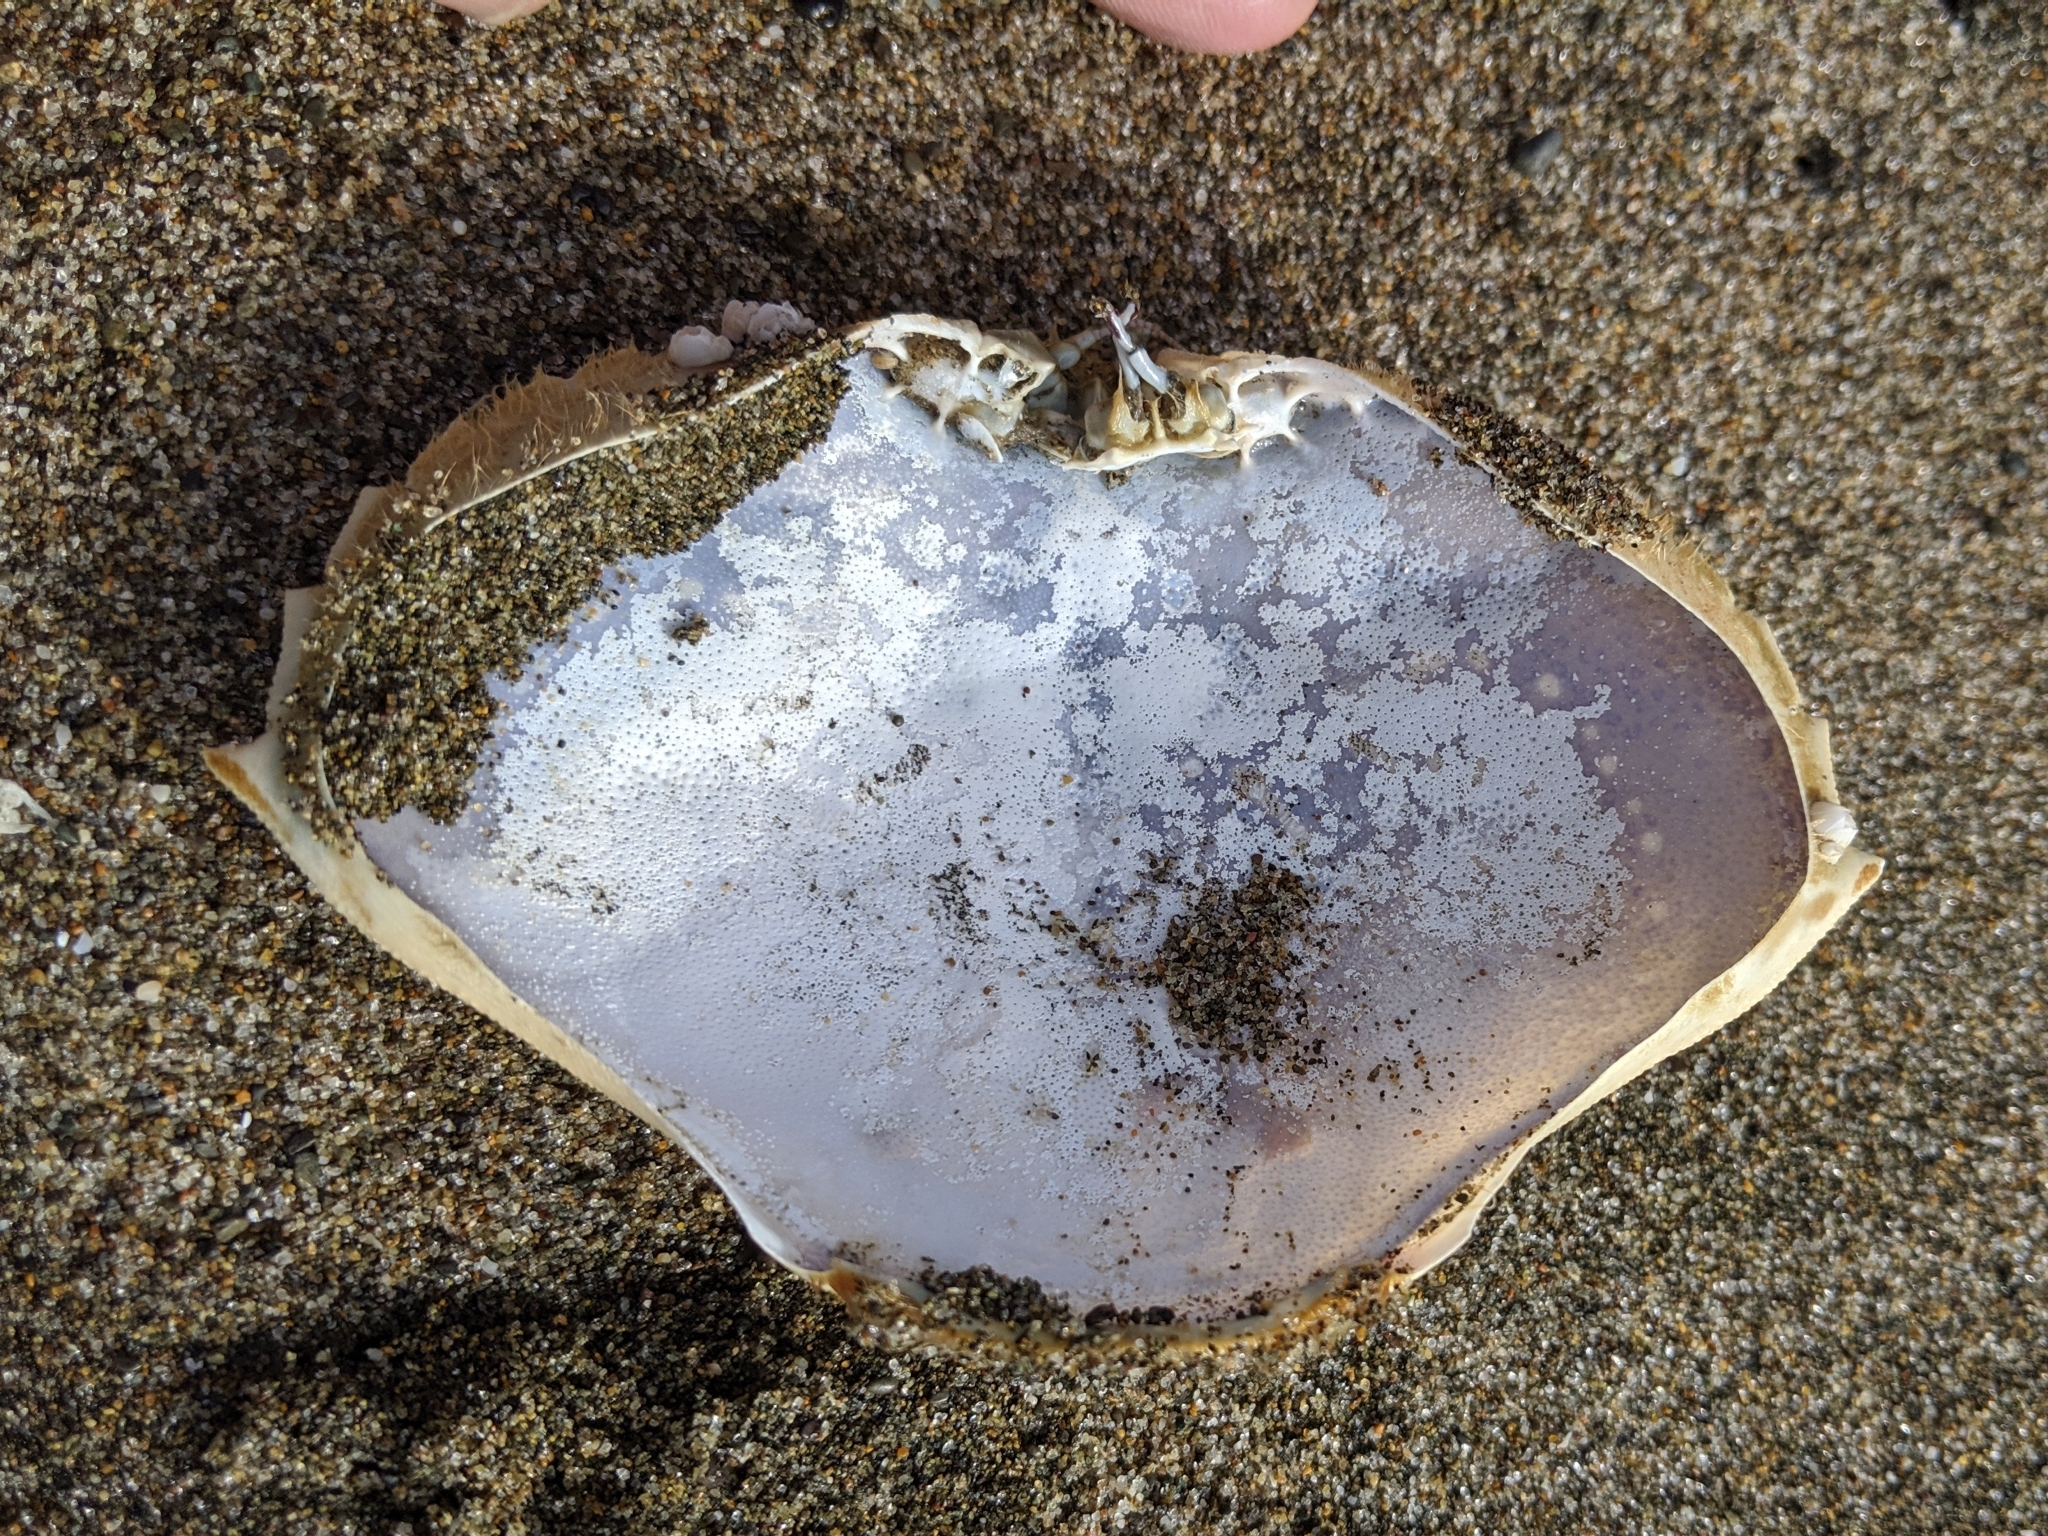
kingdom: Animalia
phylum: Arthropoda
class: Malacostraca
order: Decapoda
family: Cancridae
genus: Metacarcinus
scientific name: Metacarcinus magister
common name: Californian crab
